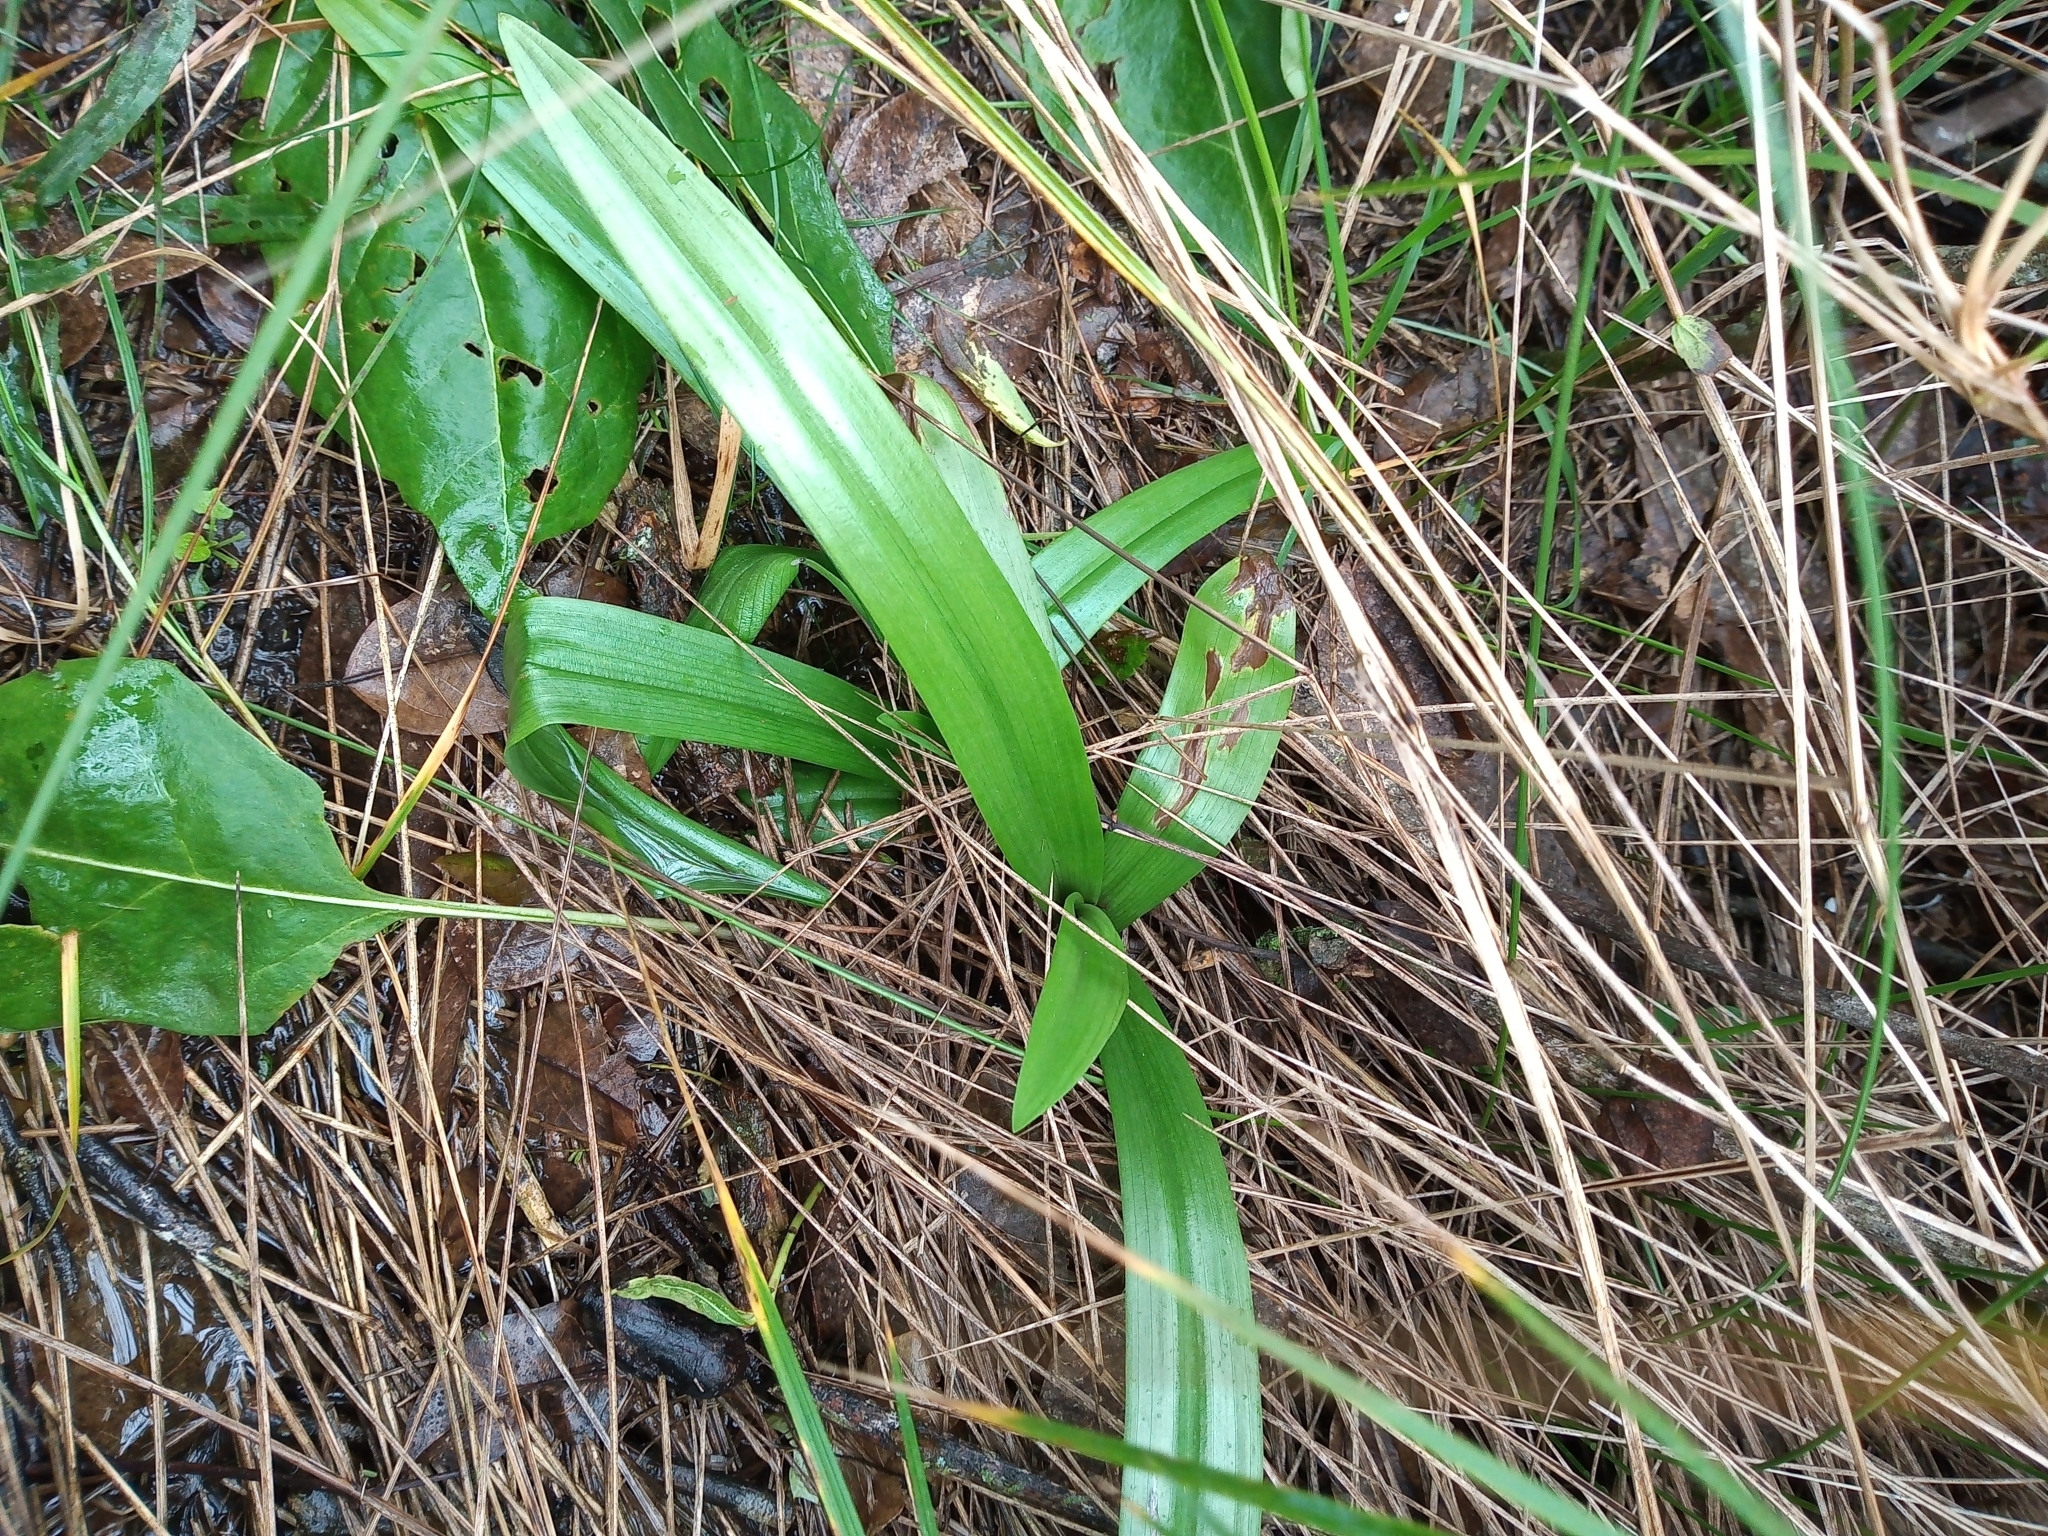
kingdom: Plantae
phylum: Tracheophyta
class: Liliopsida
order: Asparagales
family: Orchidaceae
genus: Chloraea
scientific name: Chloraea membranacea
